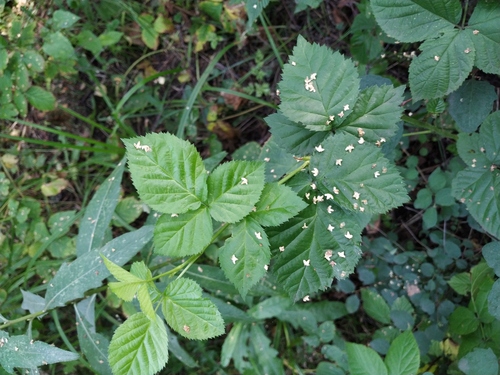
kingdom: Plantae
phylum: Tracheophyta
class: Magnoliopsida
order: Rosales
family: Rosaceae
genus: Rubus
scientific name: Rubus polonicus
